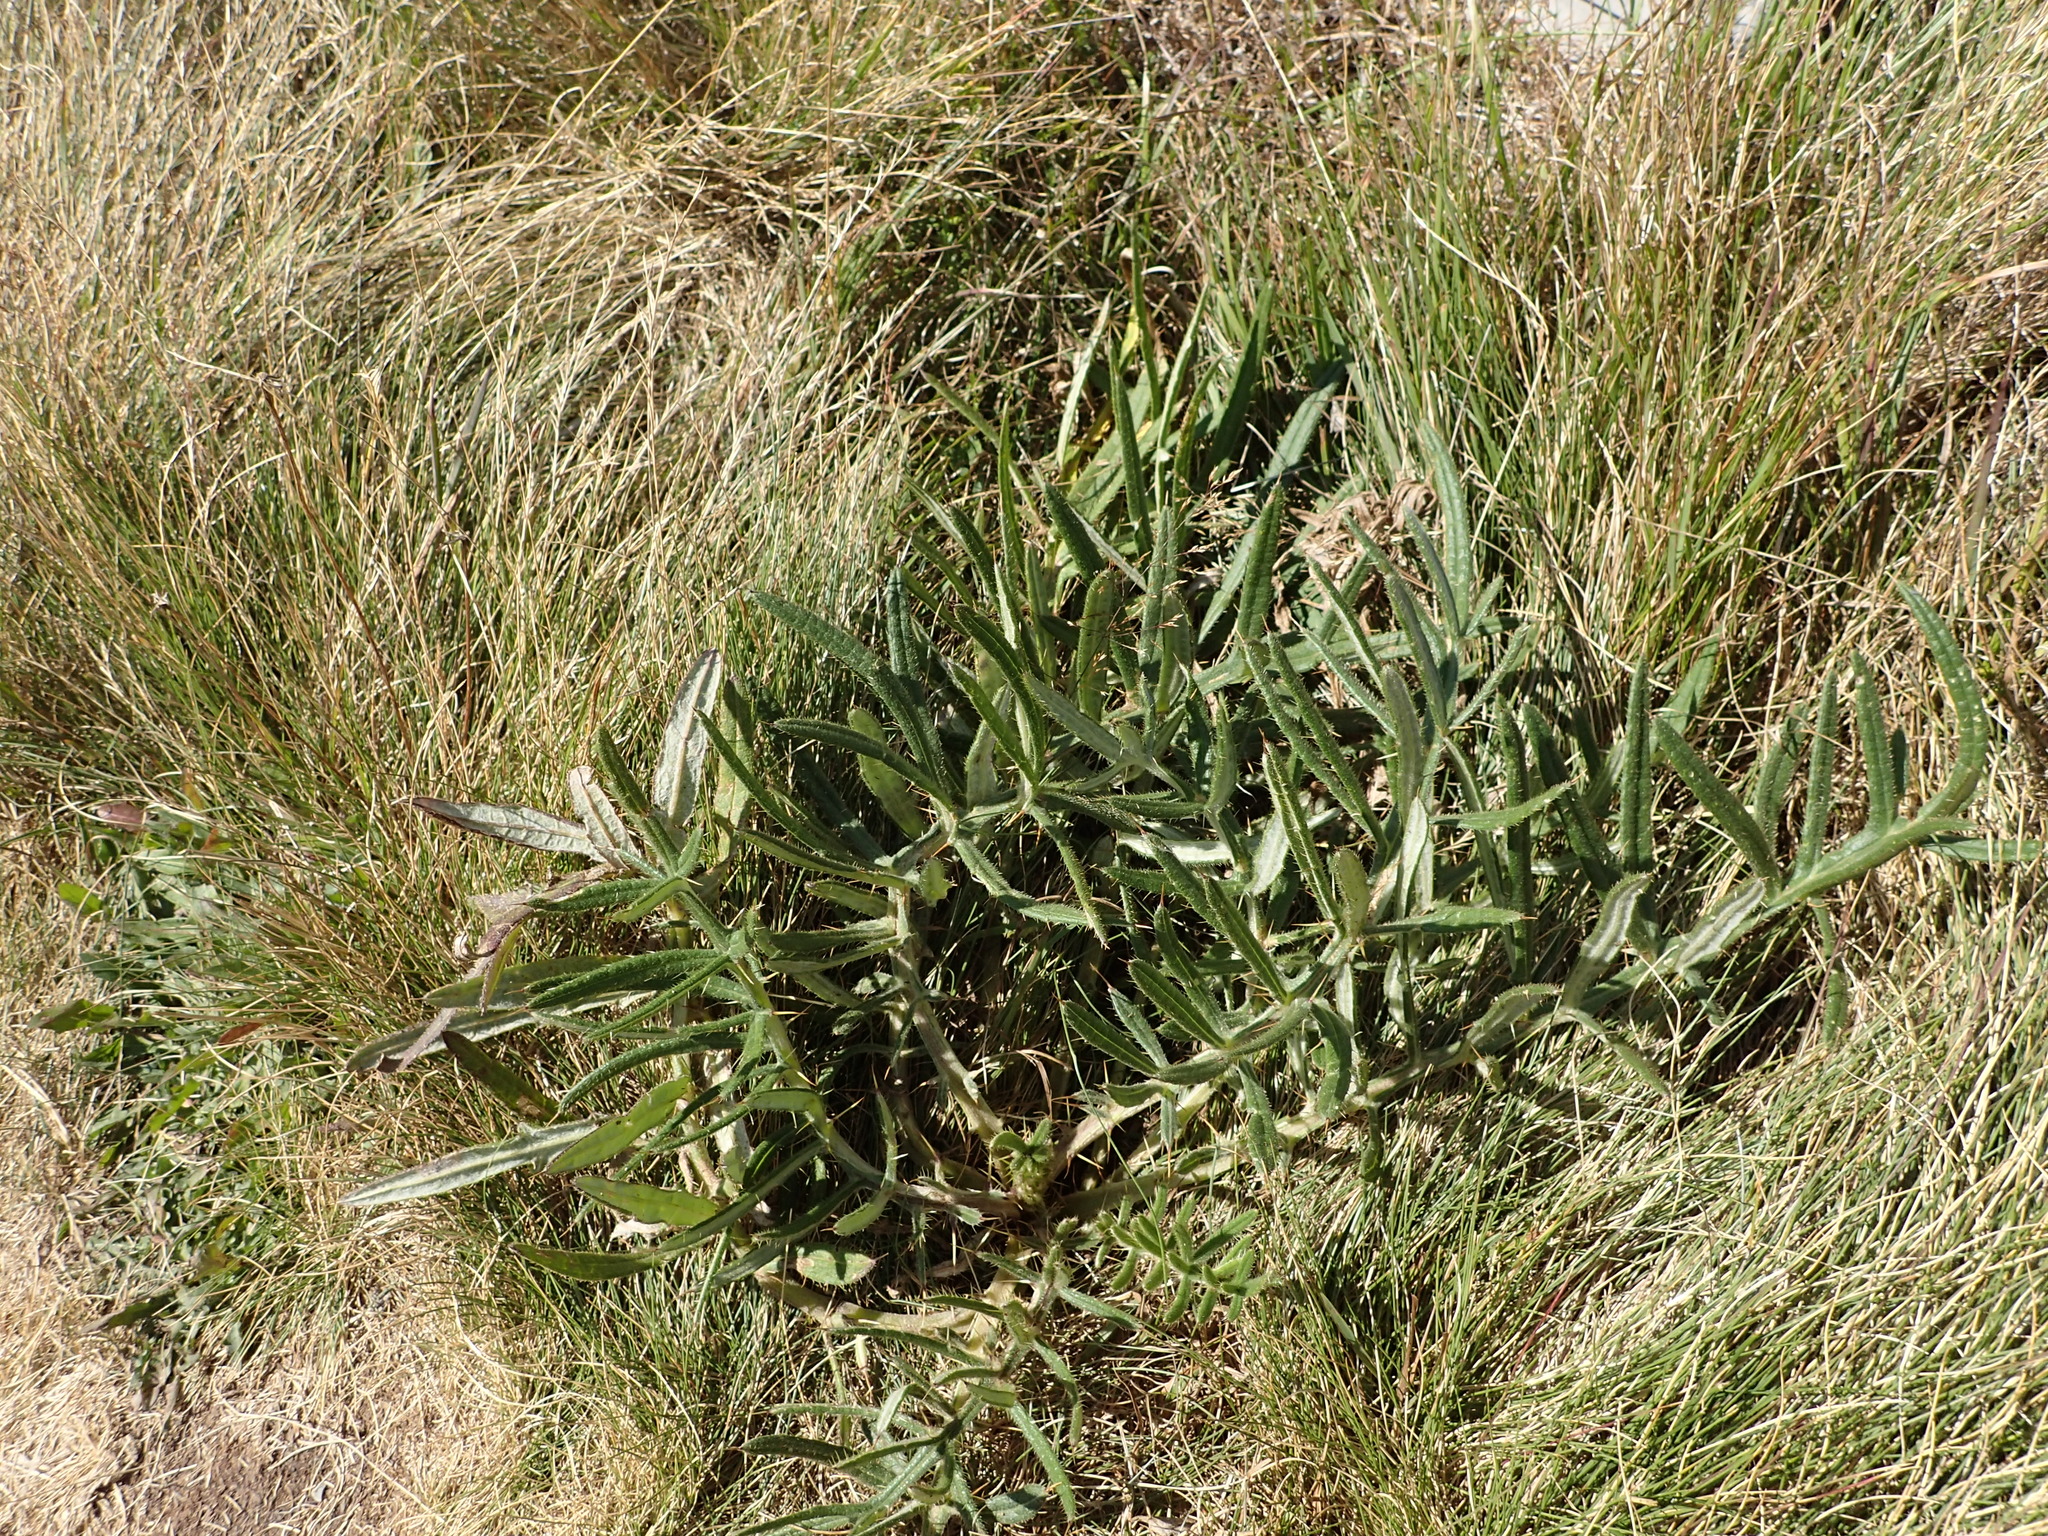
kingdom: Plantae
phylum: Tracheophyta
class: Magnoliopsida
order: Asterales
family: Asteraceae
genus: Lophiolepis
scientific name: Lophiolepis eriophora
